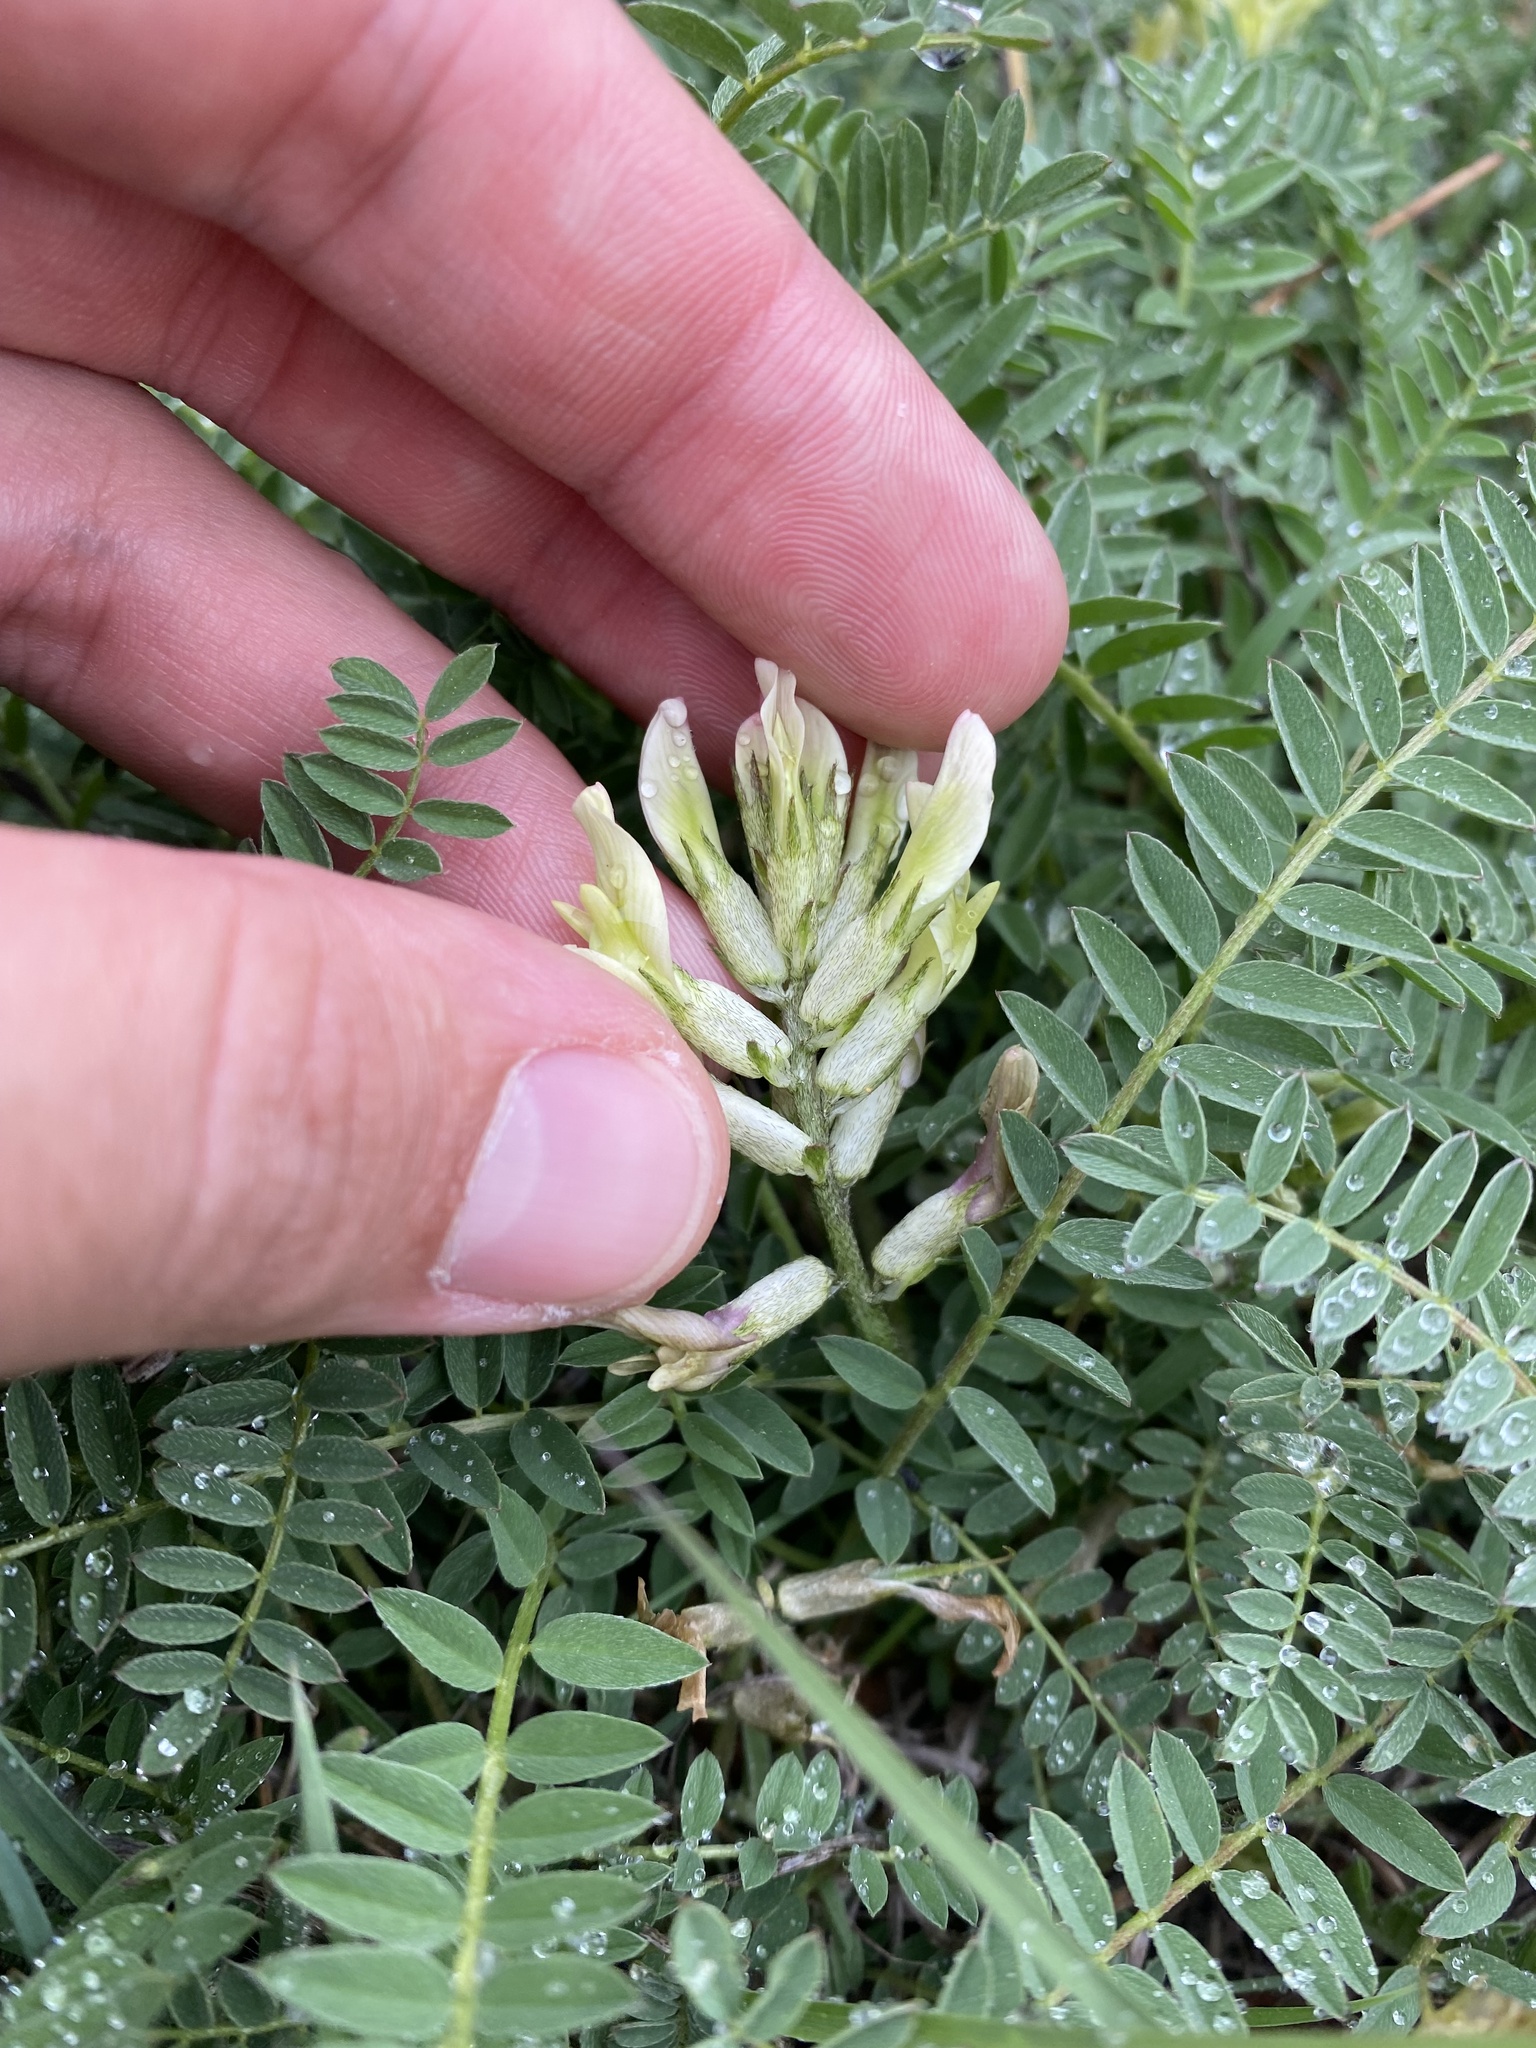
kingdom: Plantae
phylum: Tracheophyta
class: Magnoliopsida
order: Fabales
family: Fabaceae
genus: Astragalus
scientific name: Astragalus fragrans
